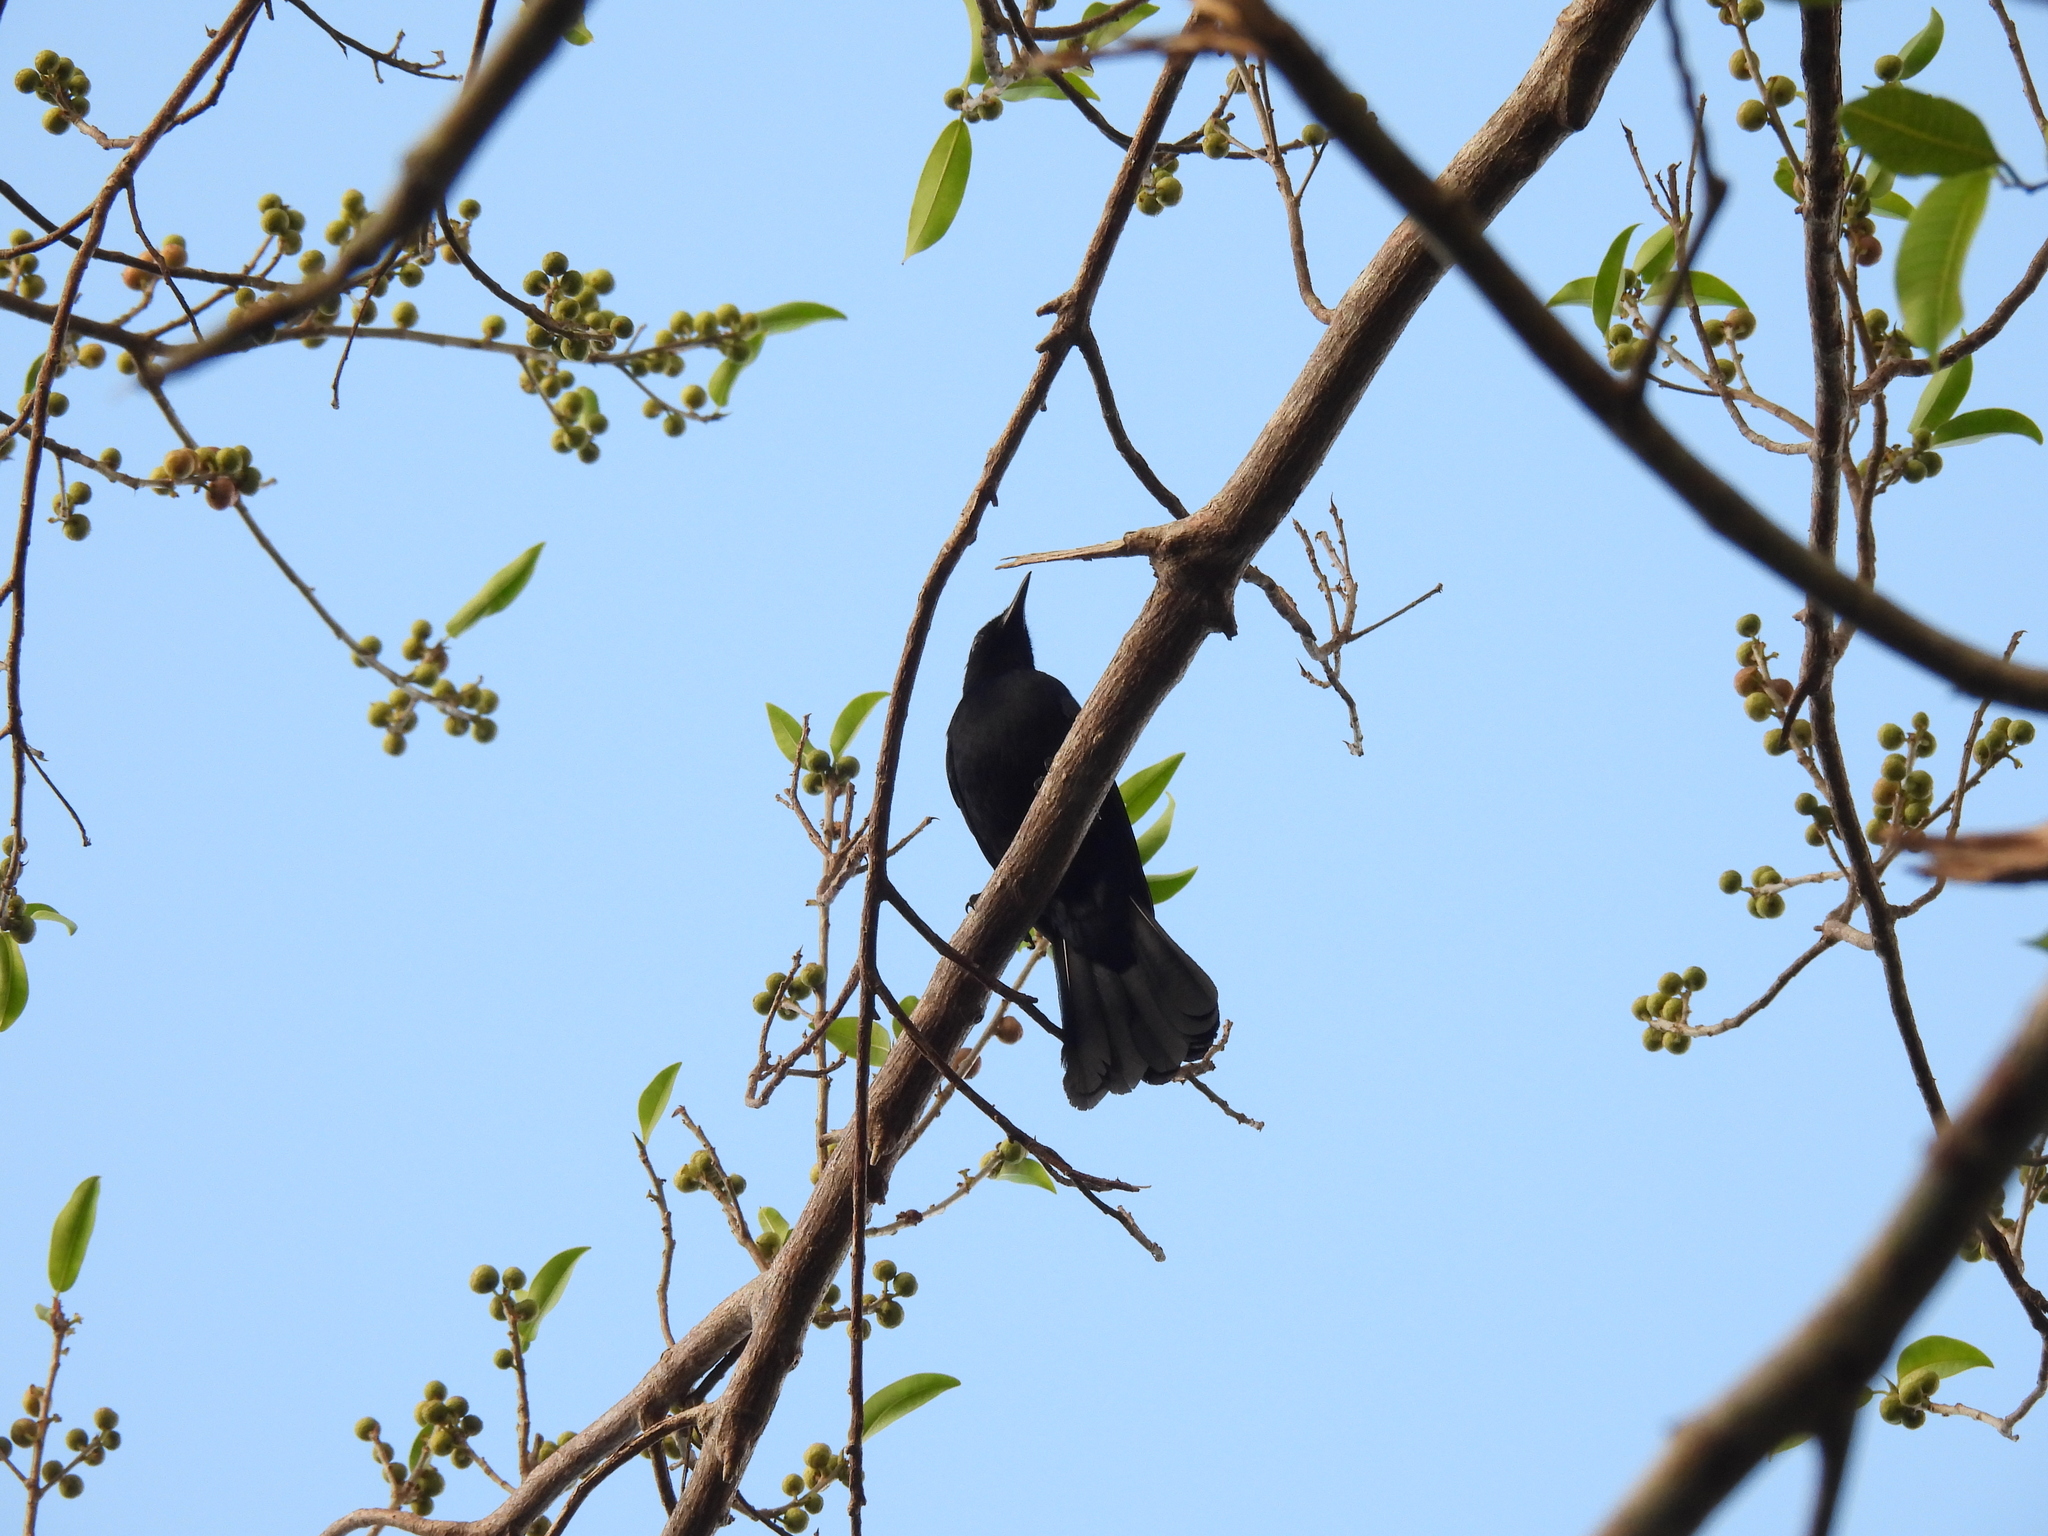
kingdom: Animalia
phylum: Chordata
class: Aves
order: Passeriformes
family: Mimidae
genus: Melanoptila
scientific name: Melanoptila glabrirostris
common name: Black catbird
